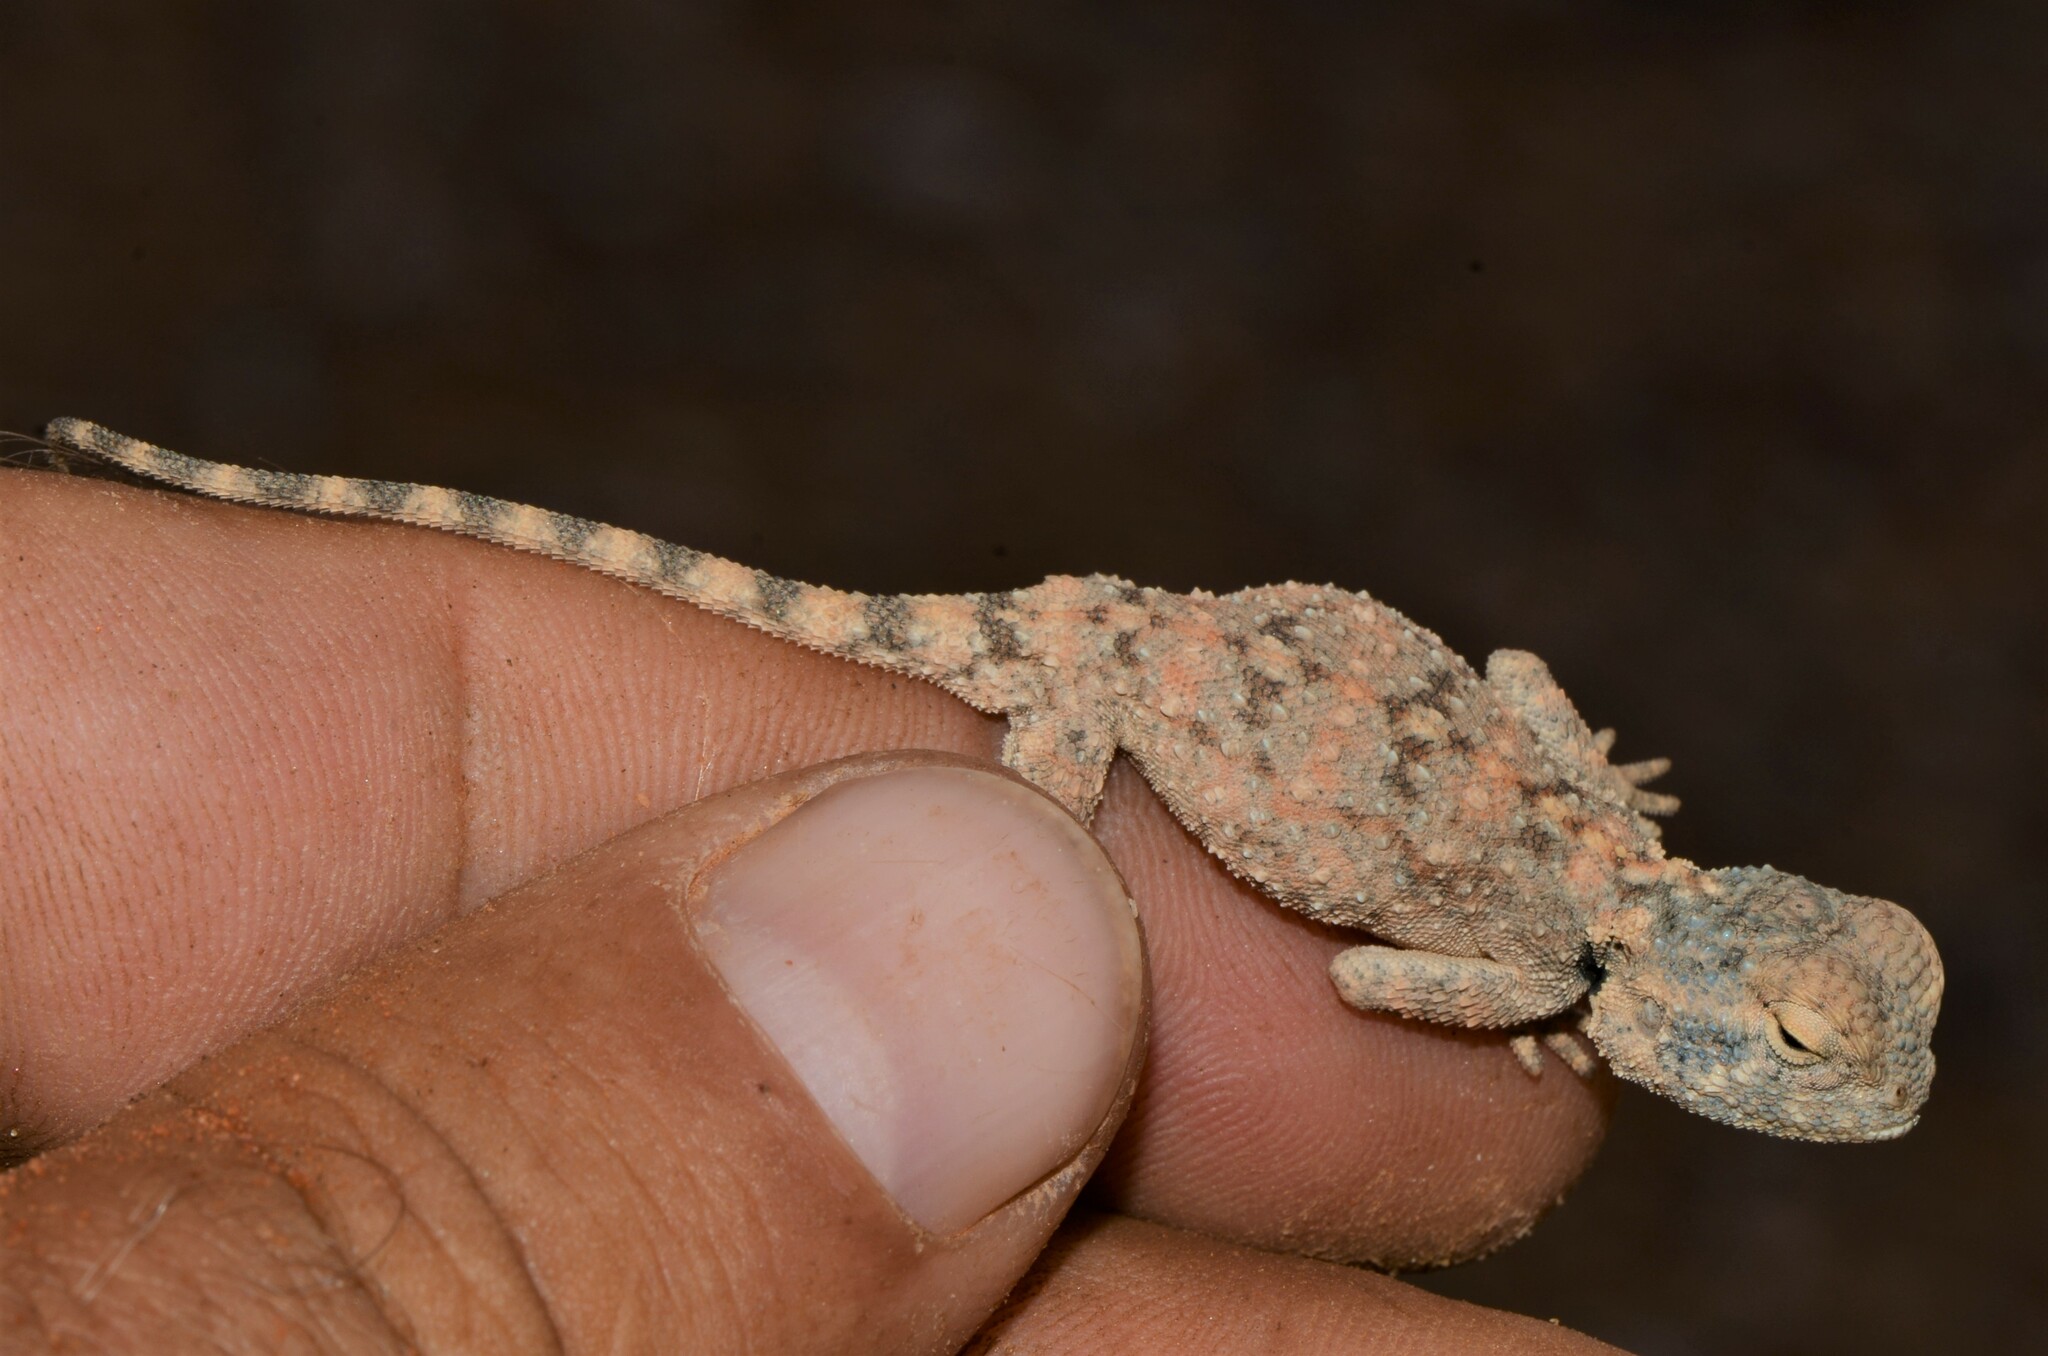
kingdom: Animalia
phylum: Chordata
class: Squamata
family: Agamidae
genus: Agama
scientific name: Agama anchietae
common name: Anchieta's agama
